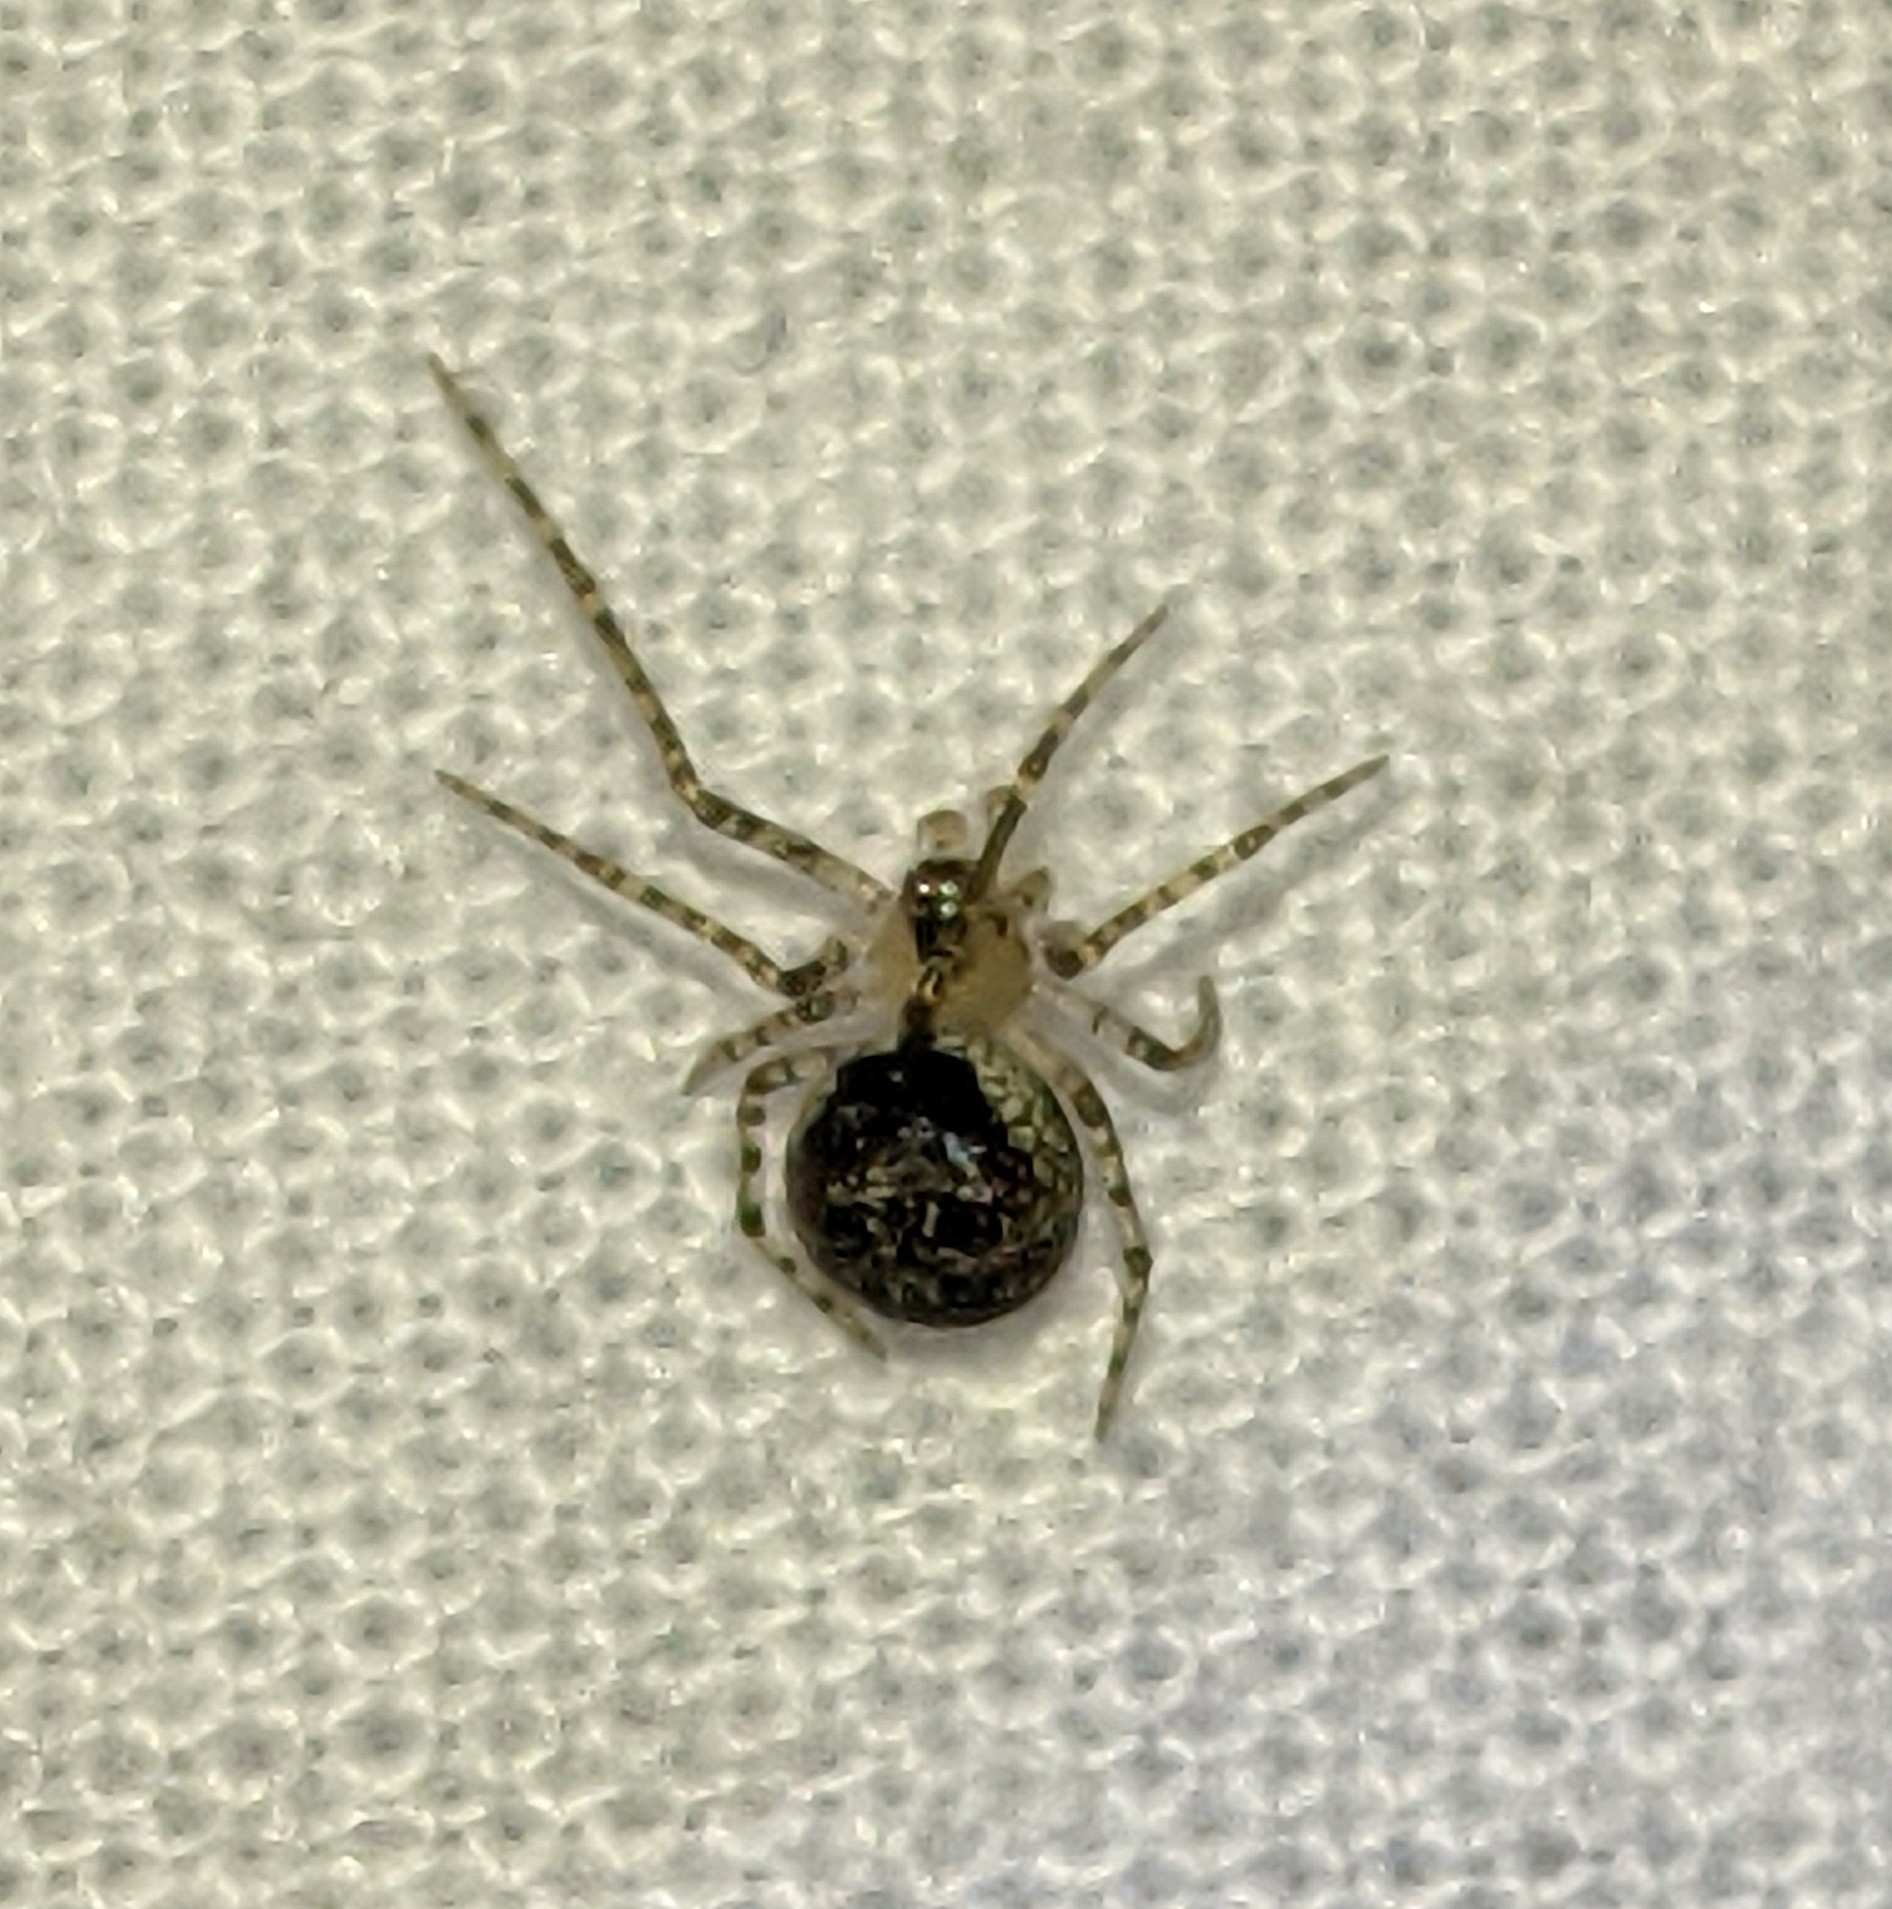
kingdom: Animalia
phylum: Arthropoda
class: Arachnida
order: Araneae
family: Theridiidae
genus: Platnickina
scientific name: Platnickina tincta
